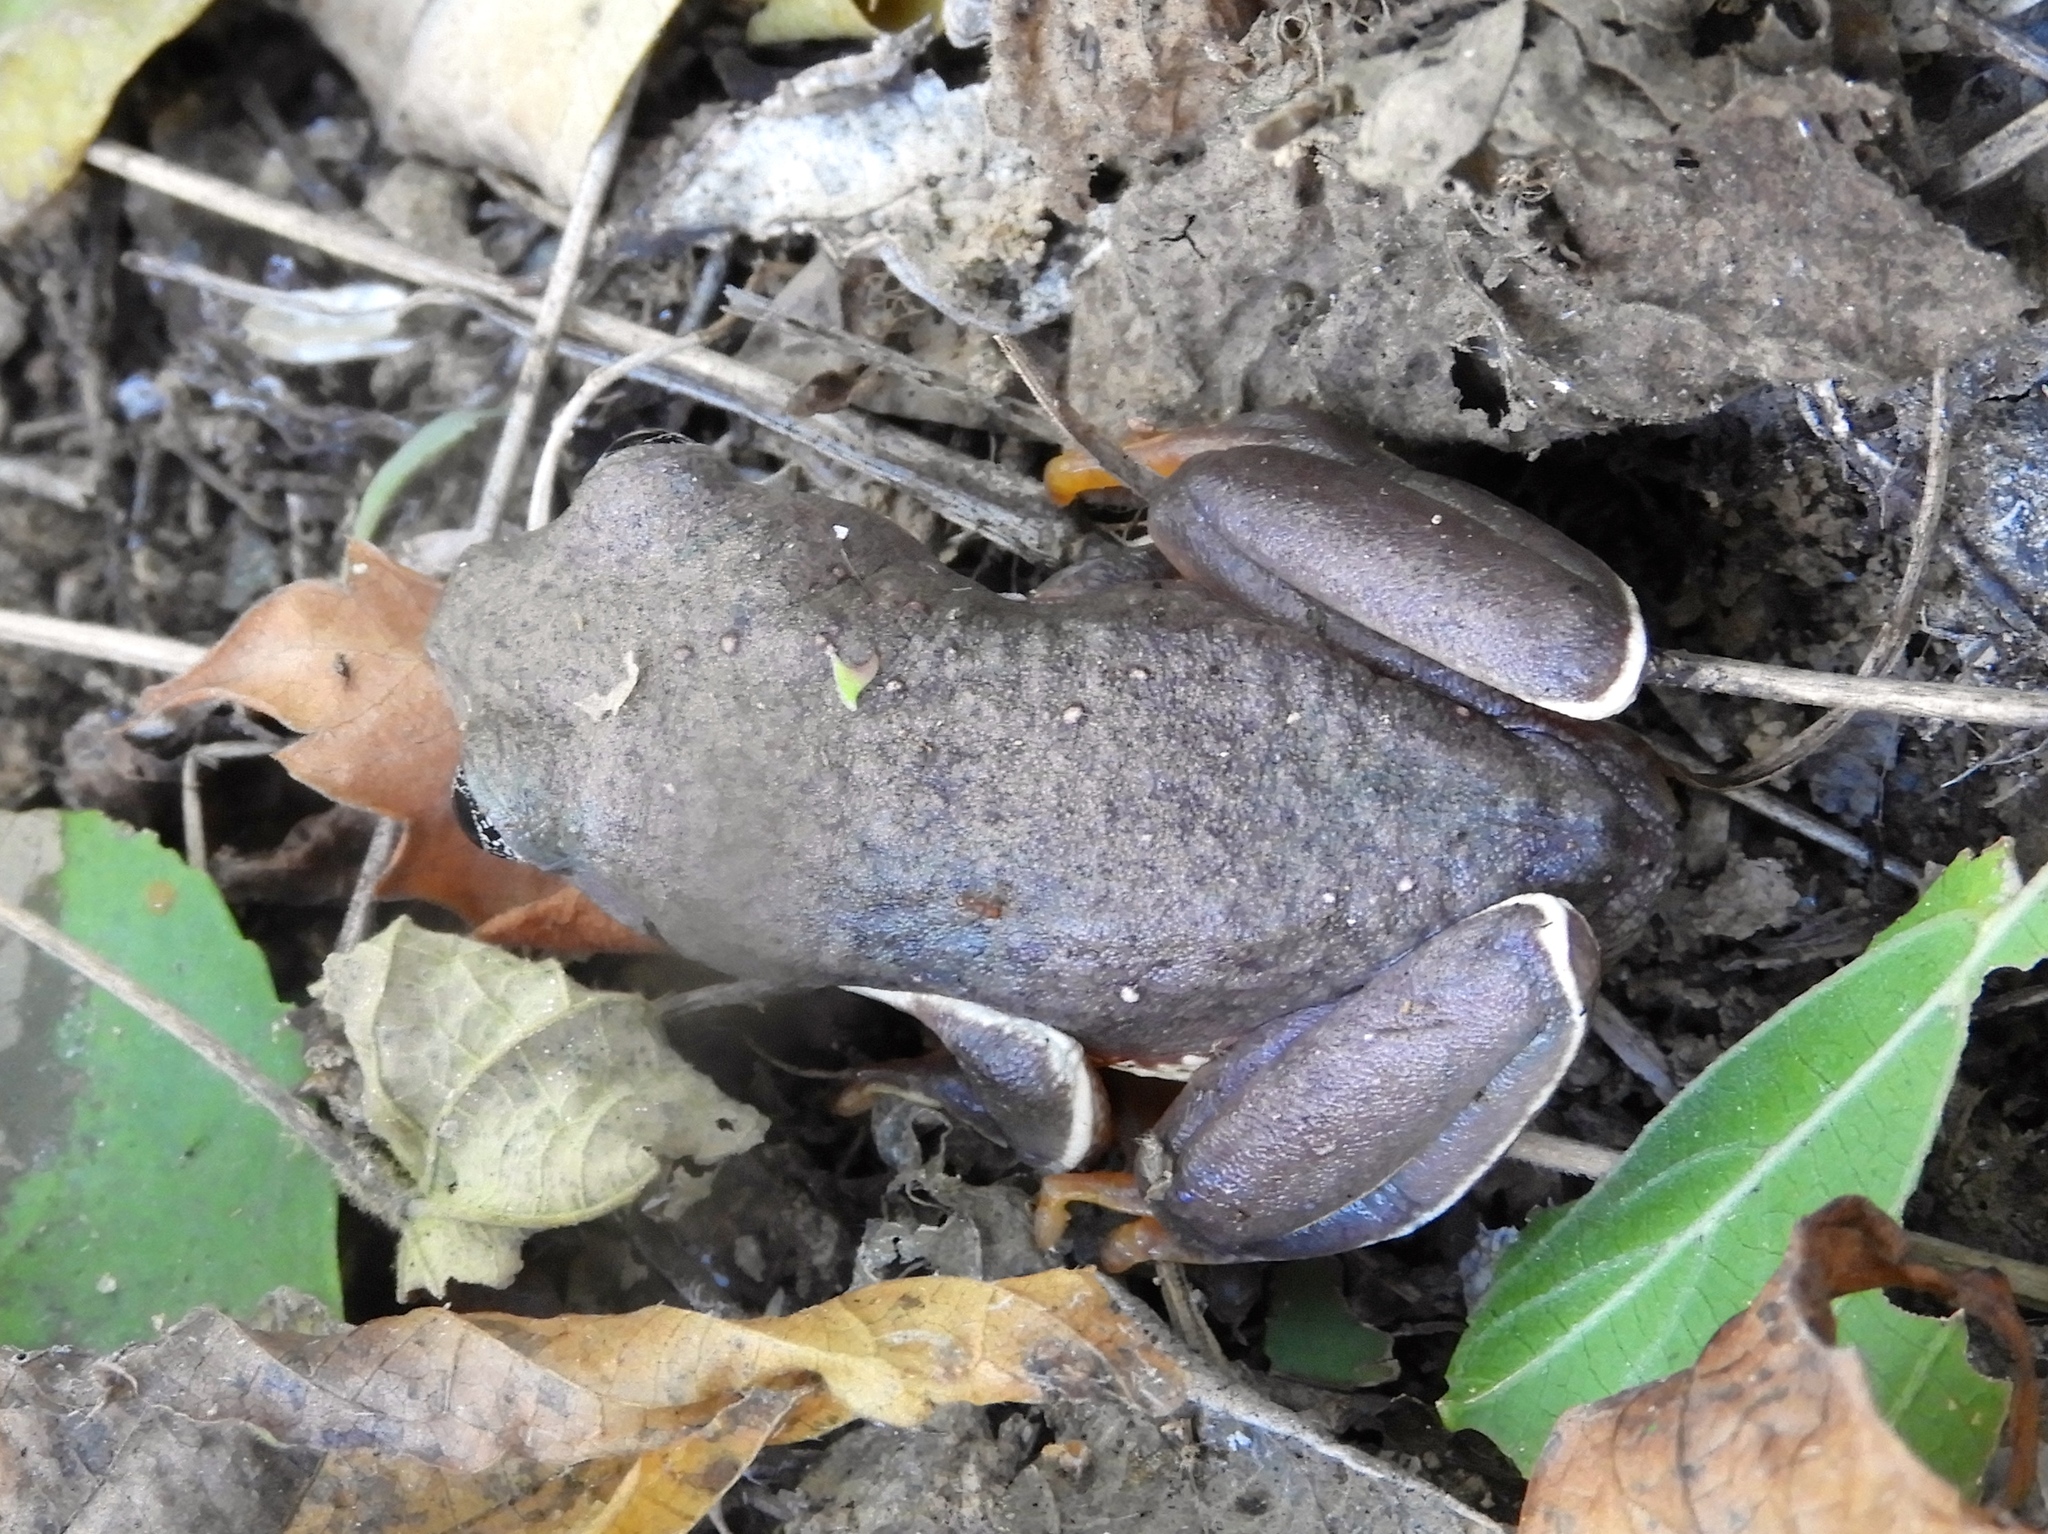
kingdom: Animalia
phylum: Chordata
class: Amphibia
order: Anura
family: Phyllomedusidae
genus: Agalychnis
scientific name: Agalychnis dacnicolor
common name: Mexican giant tree frog
